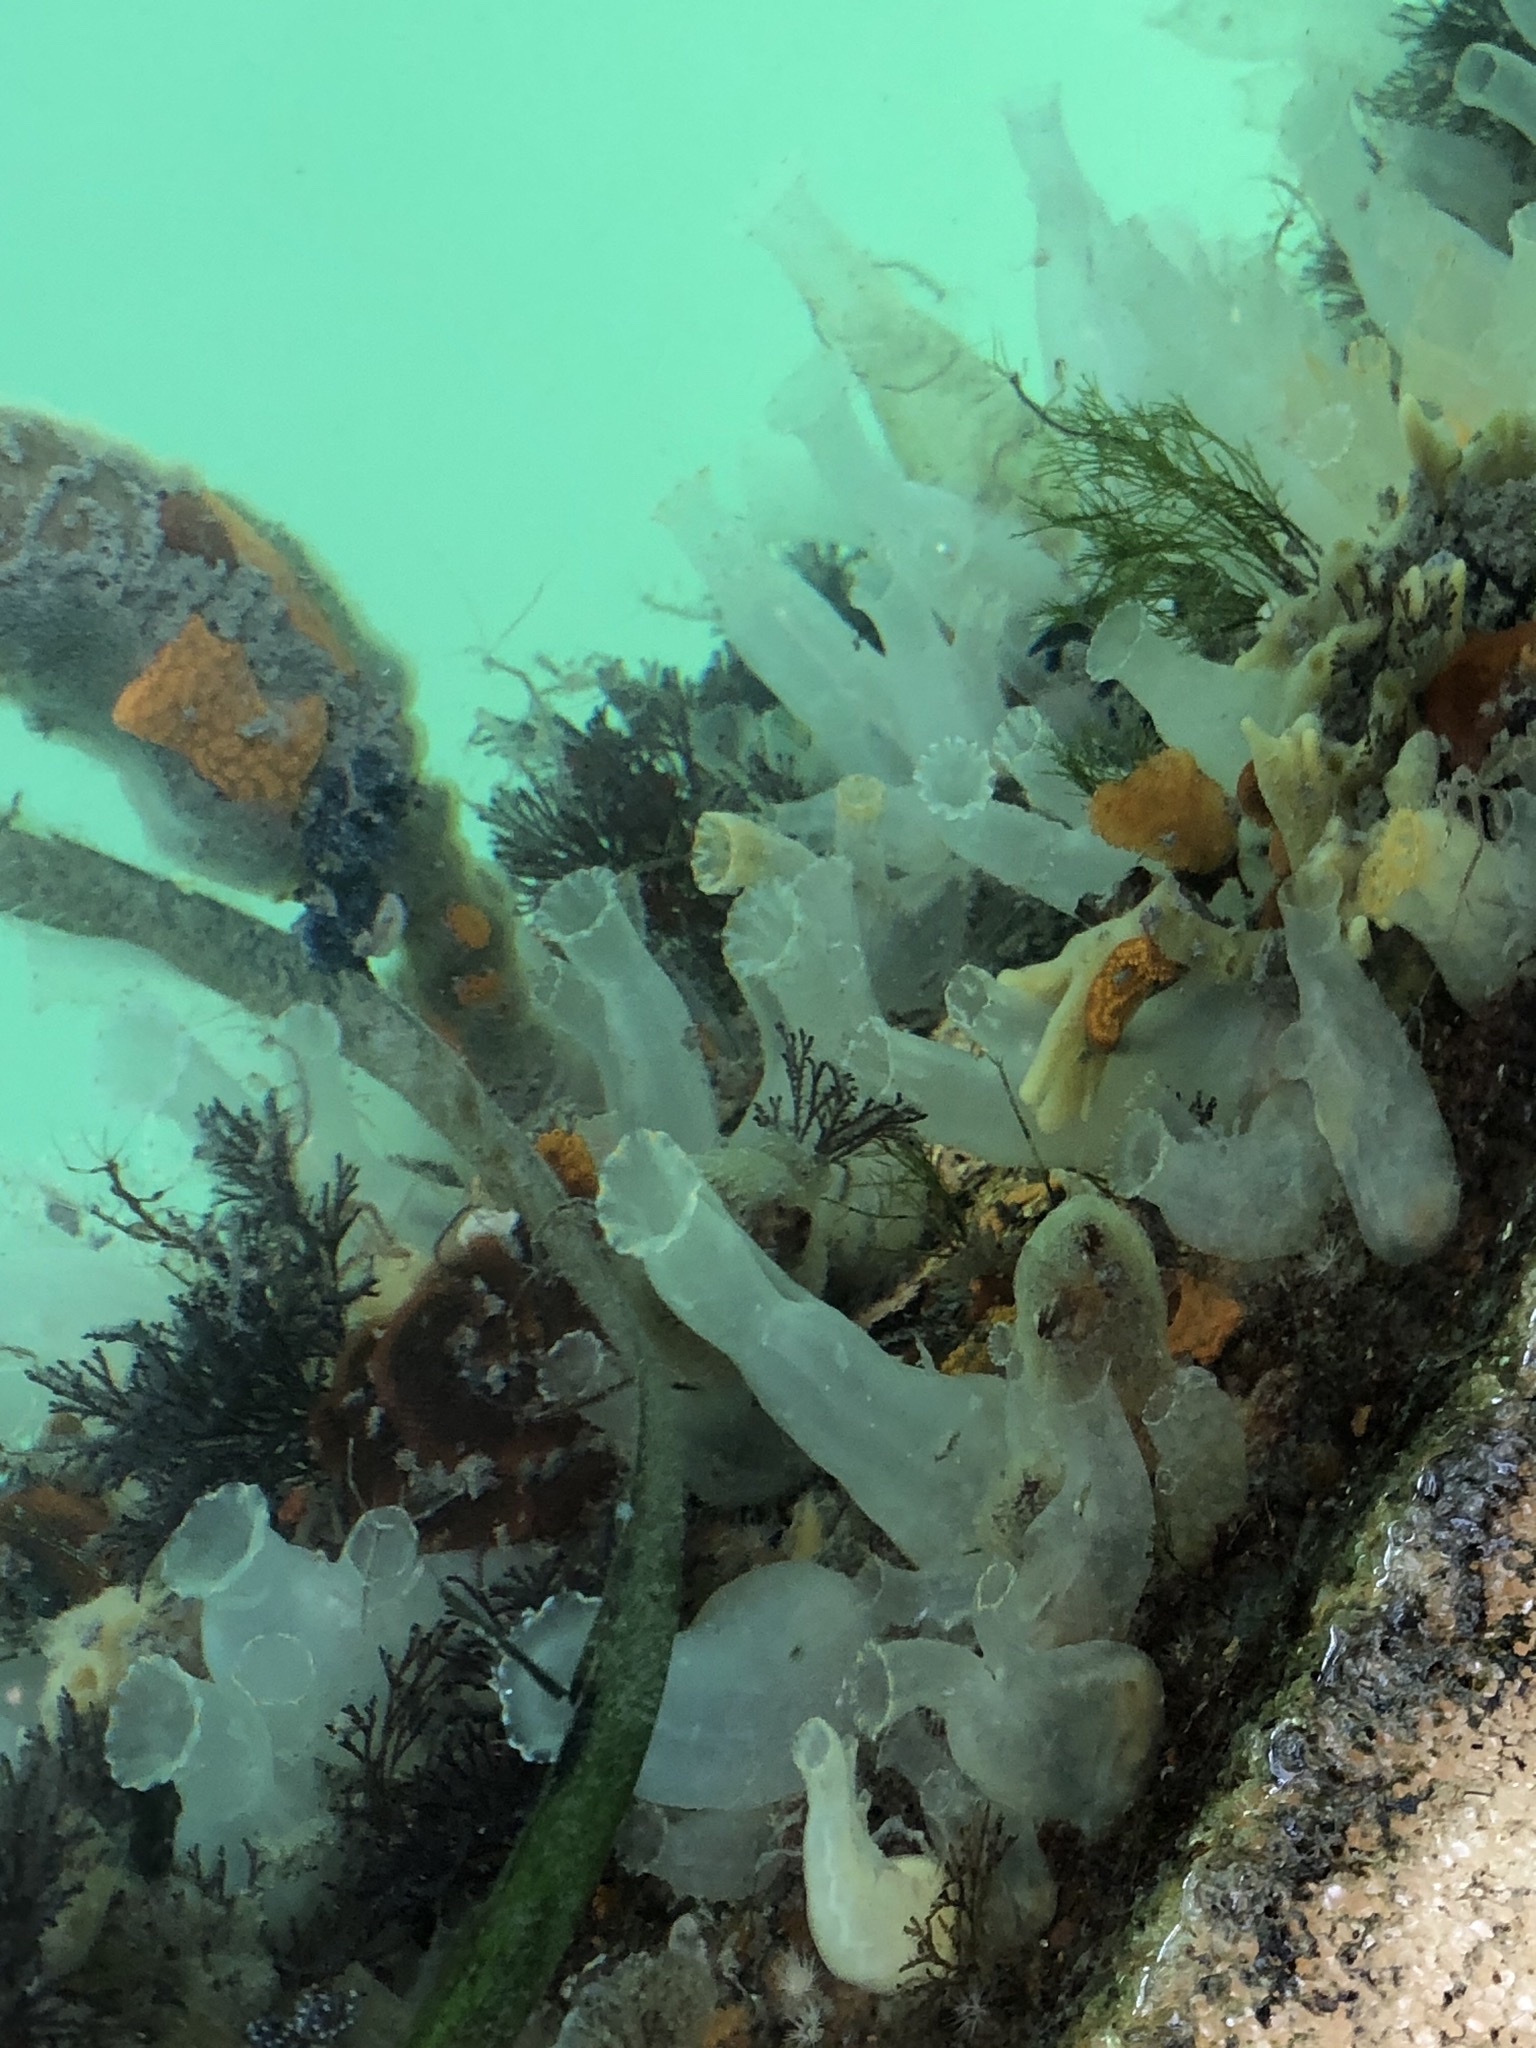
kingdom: Animalia
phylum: Chordata
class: Ascidiacea
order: Phlebobranchia
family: Cionidae
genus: Ciona
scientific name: Ciona savignyi
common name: Tunicate
